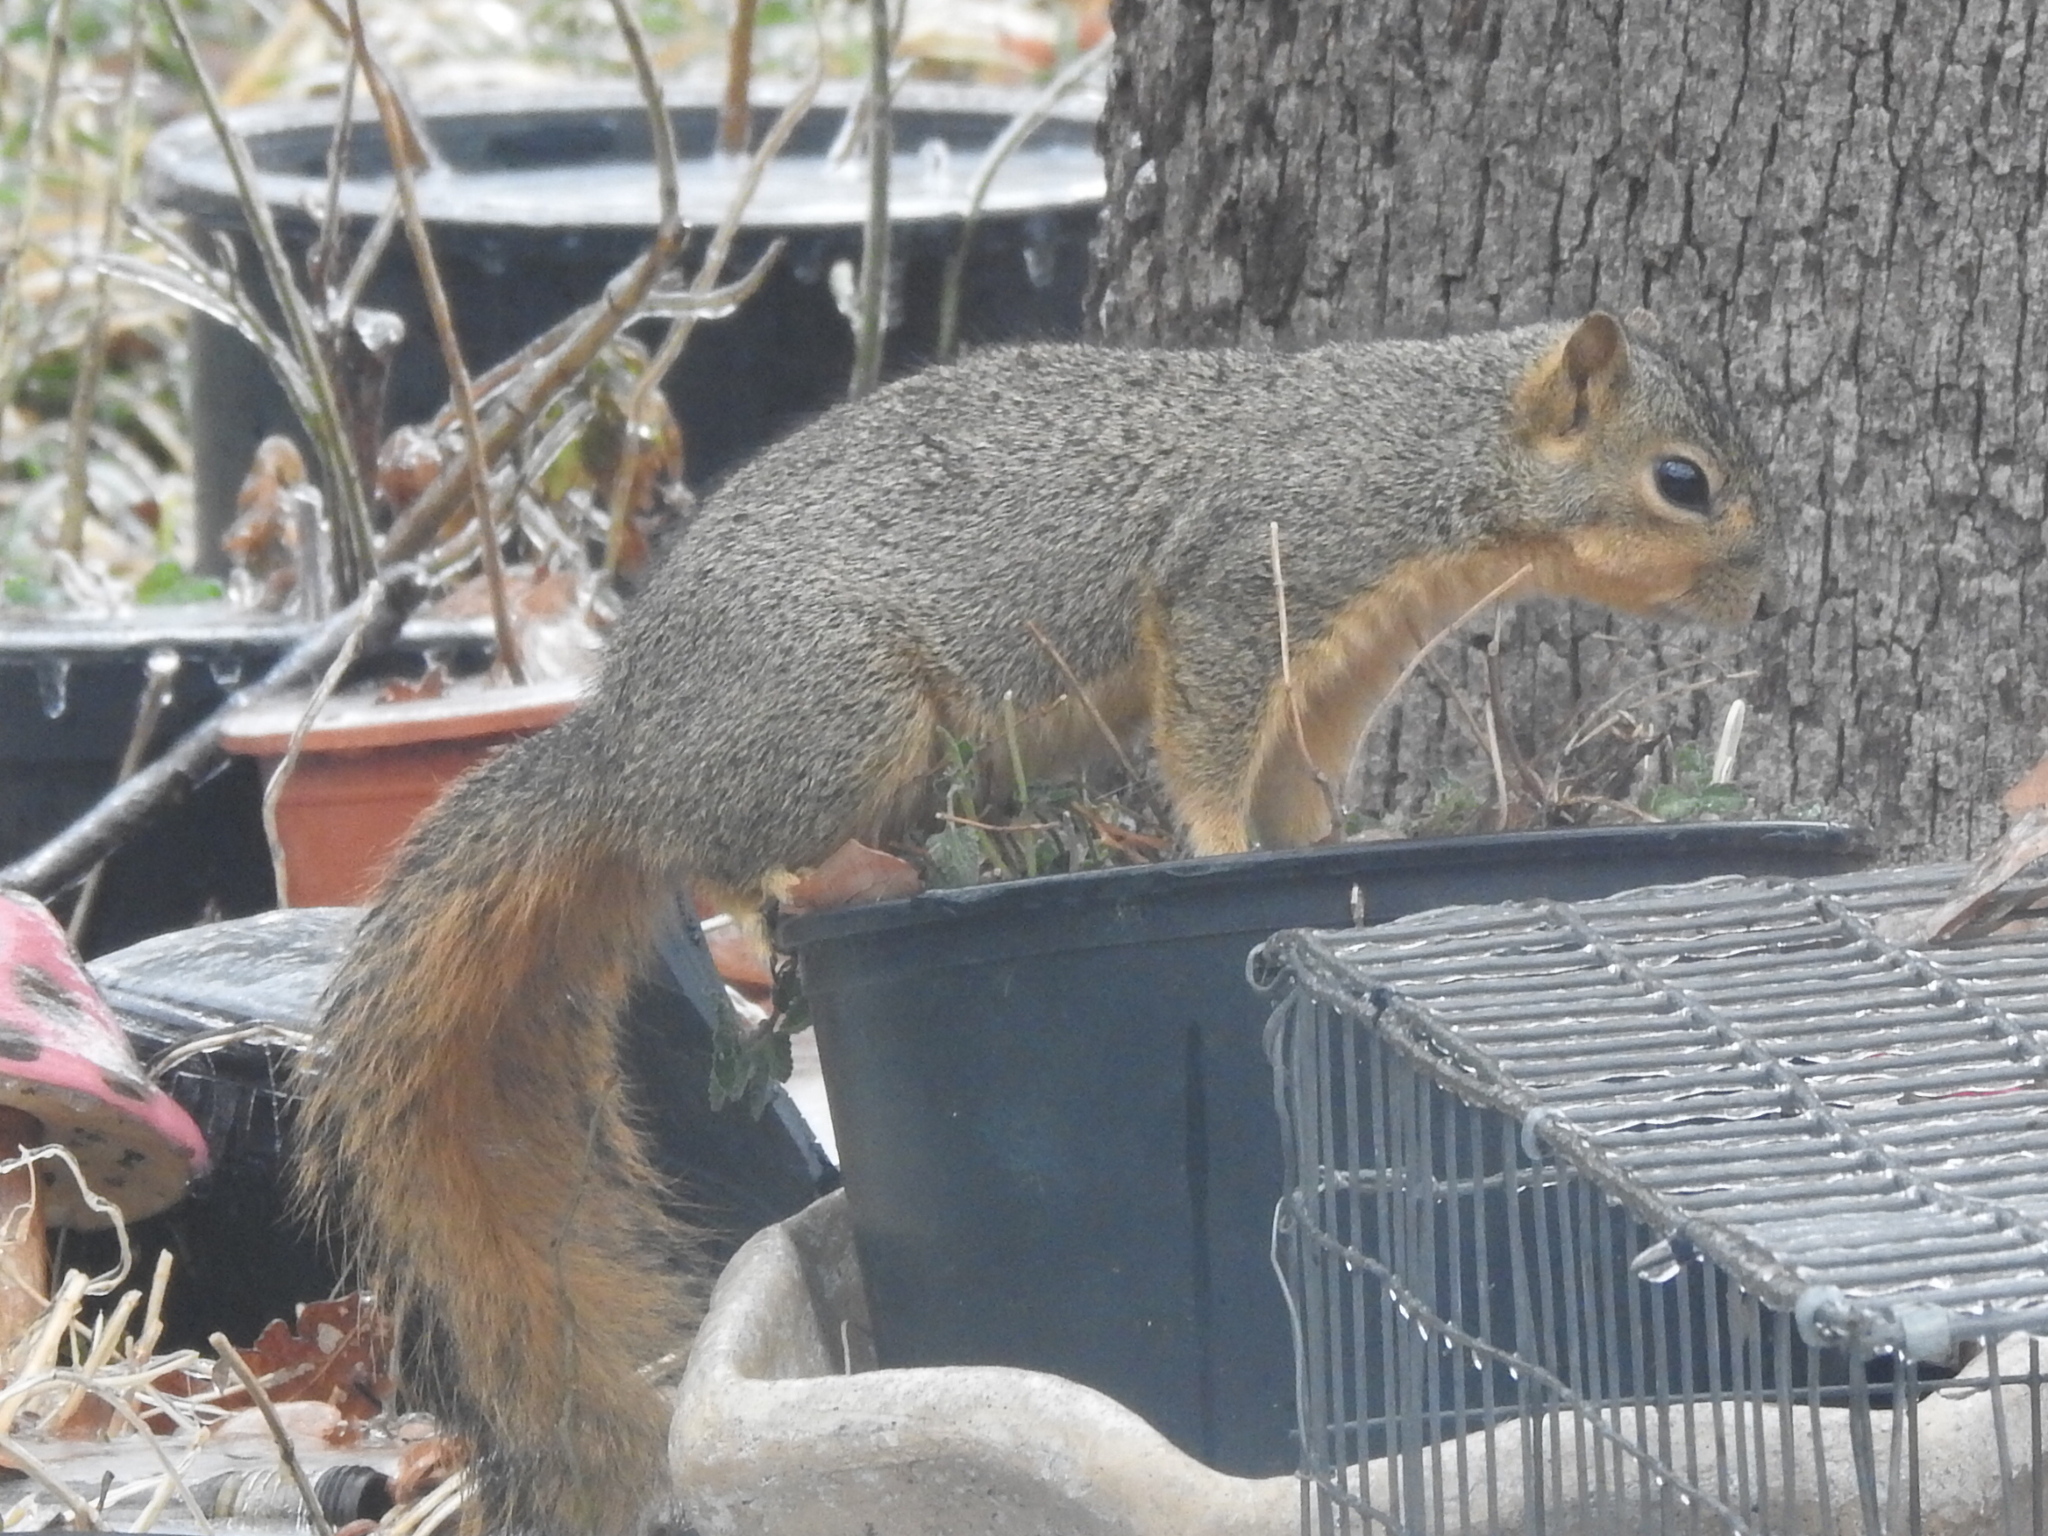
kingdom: Animalia
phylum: Chordata
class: Mammalia
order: Rodentia
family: Sciuridae
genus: Sciurus
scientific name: Sciurus niger
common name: Fox squirrel
